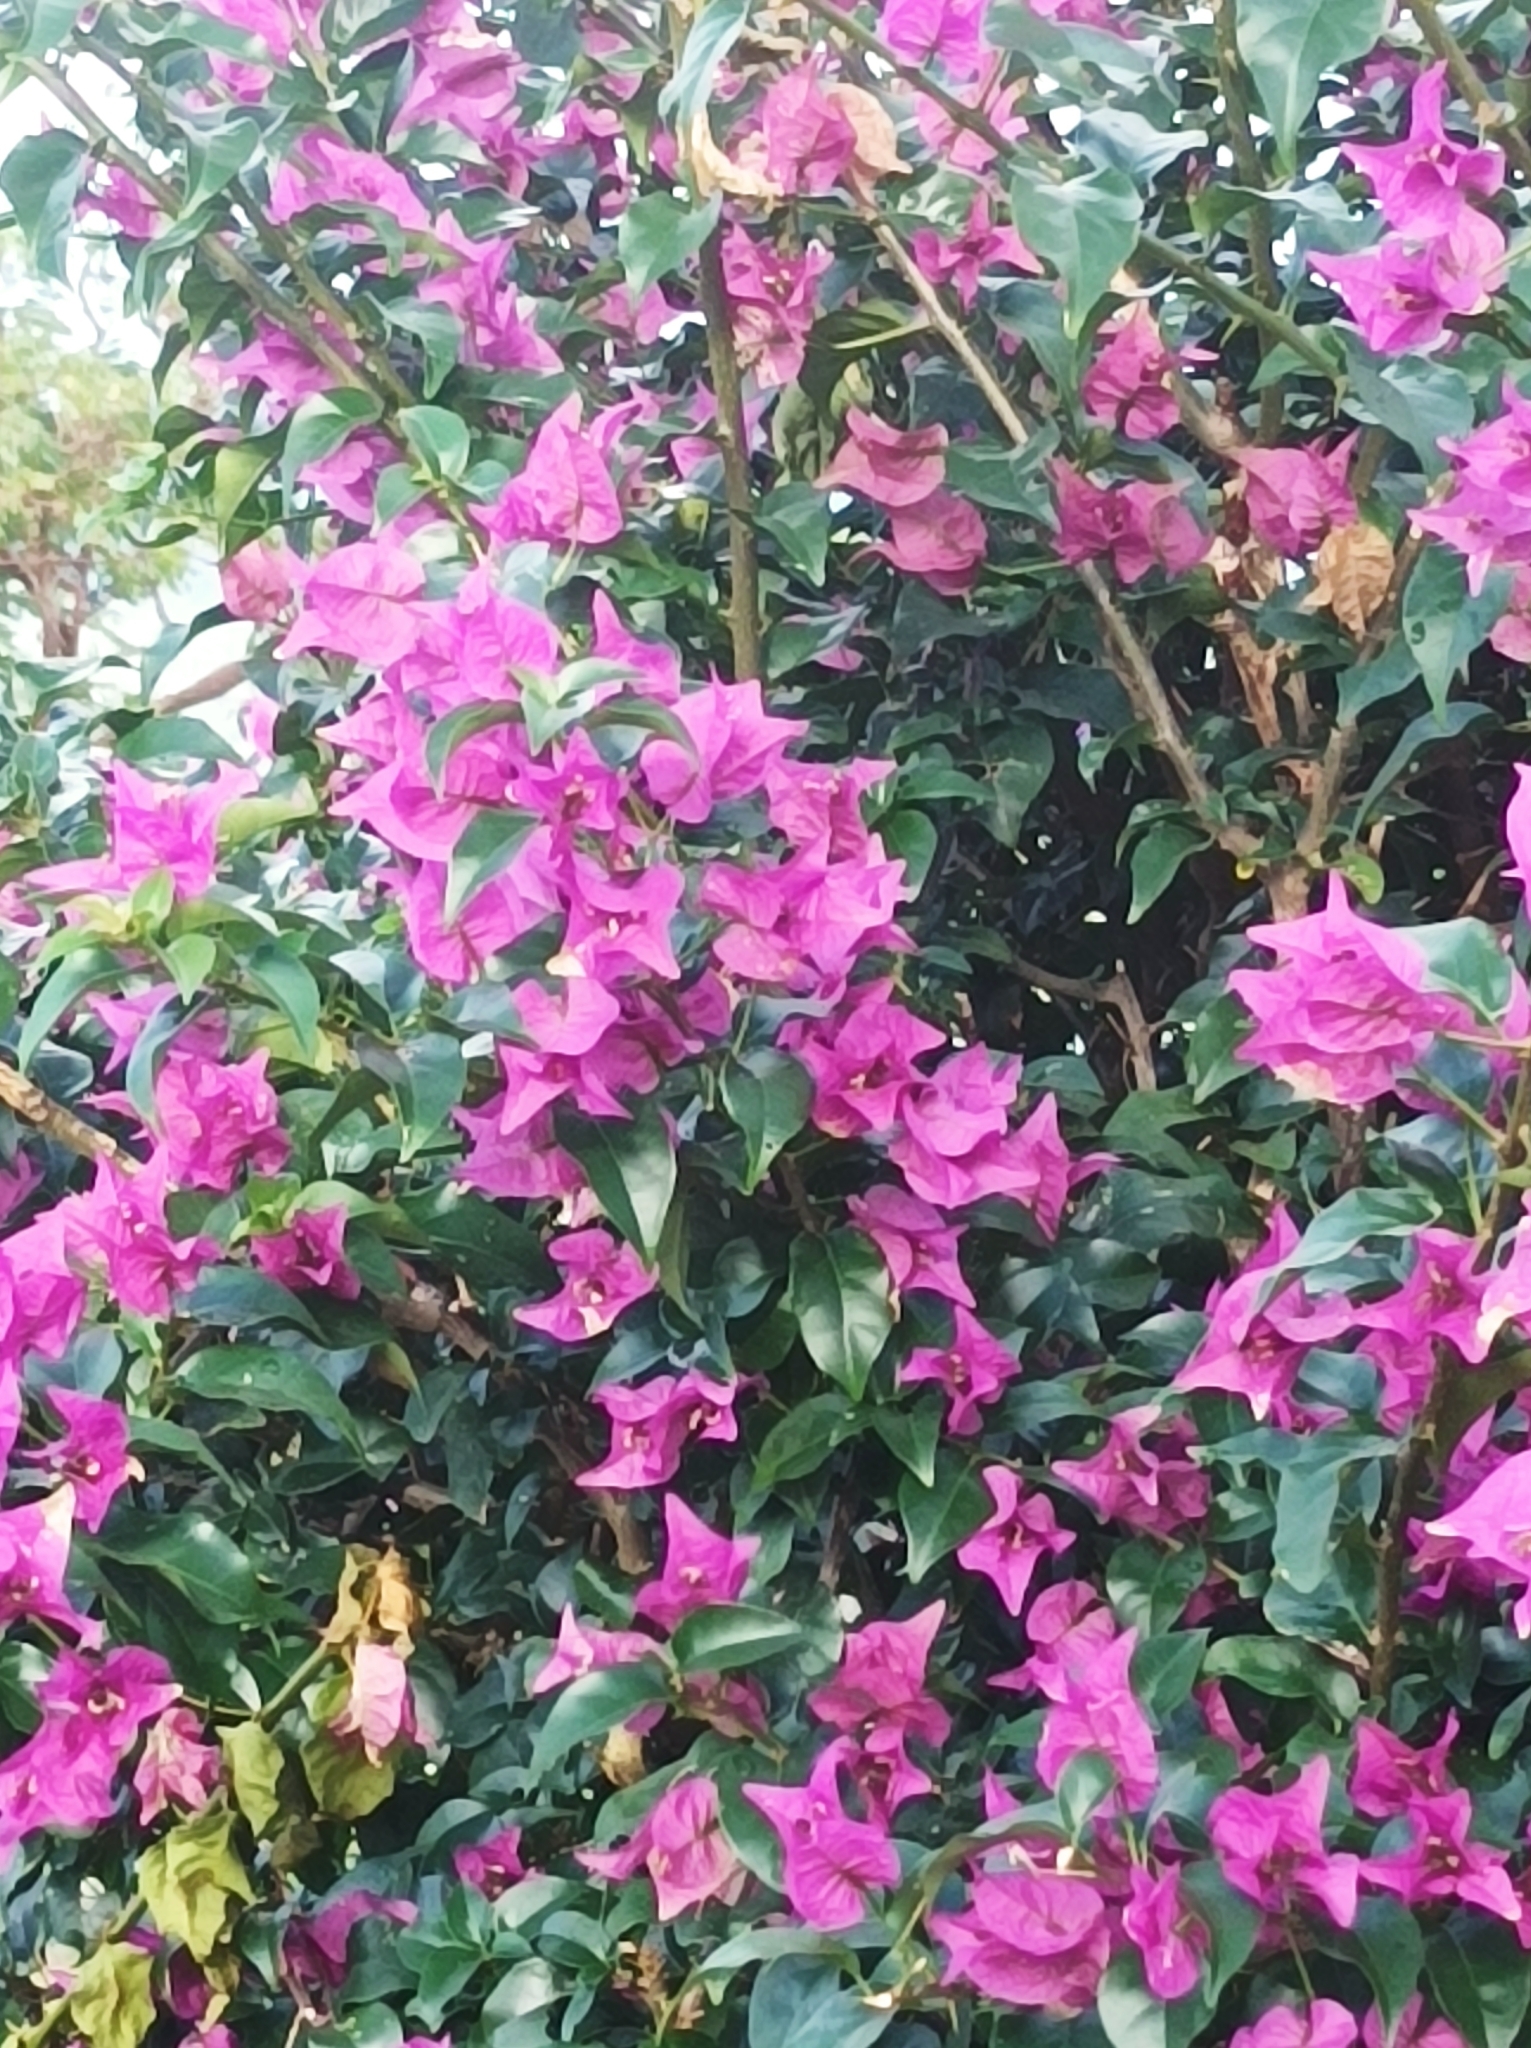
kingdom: Plantae
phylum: Tracheophyta
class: Magnoliopsida
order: Caryophyllales
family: Nyctaginaceae
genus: Bougainvillea
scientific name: Bougainvillea glabra
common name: Paperflower
